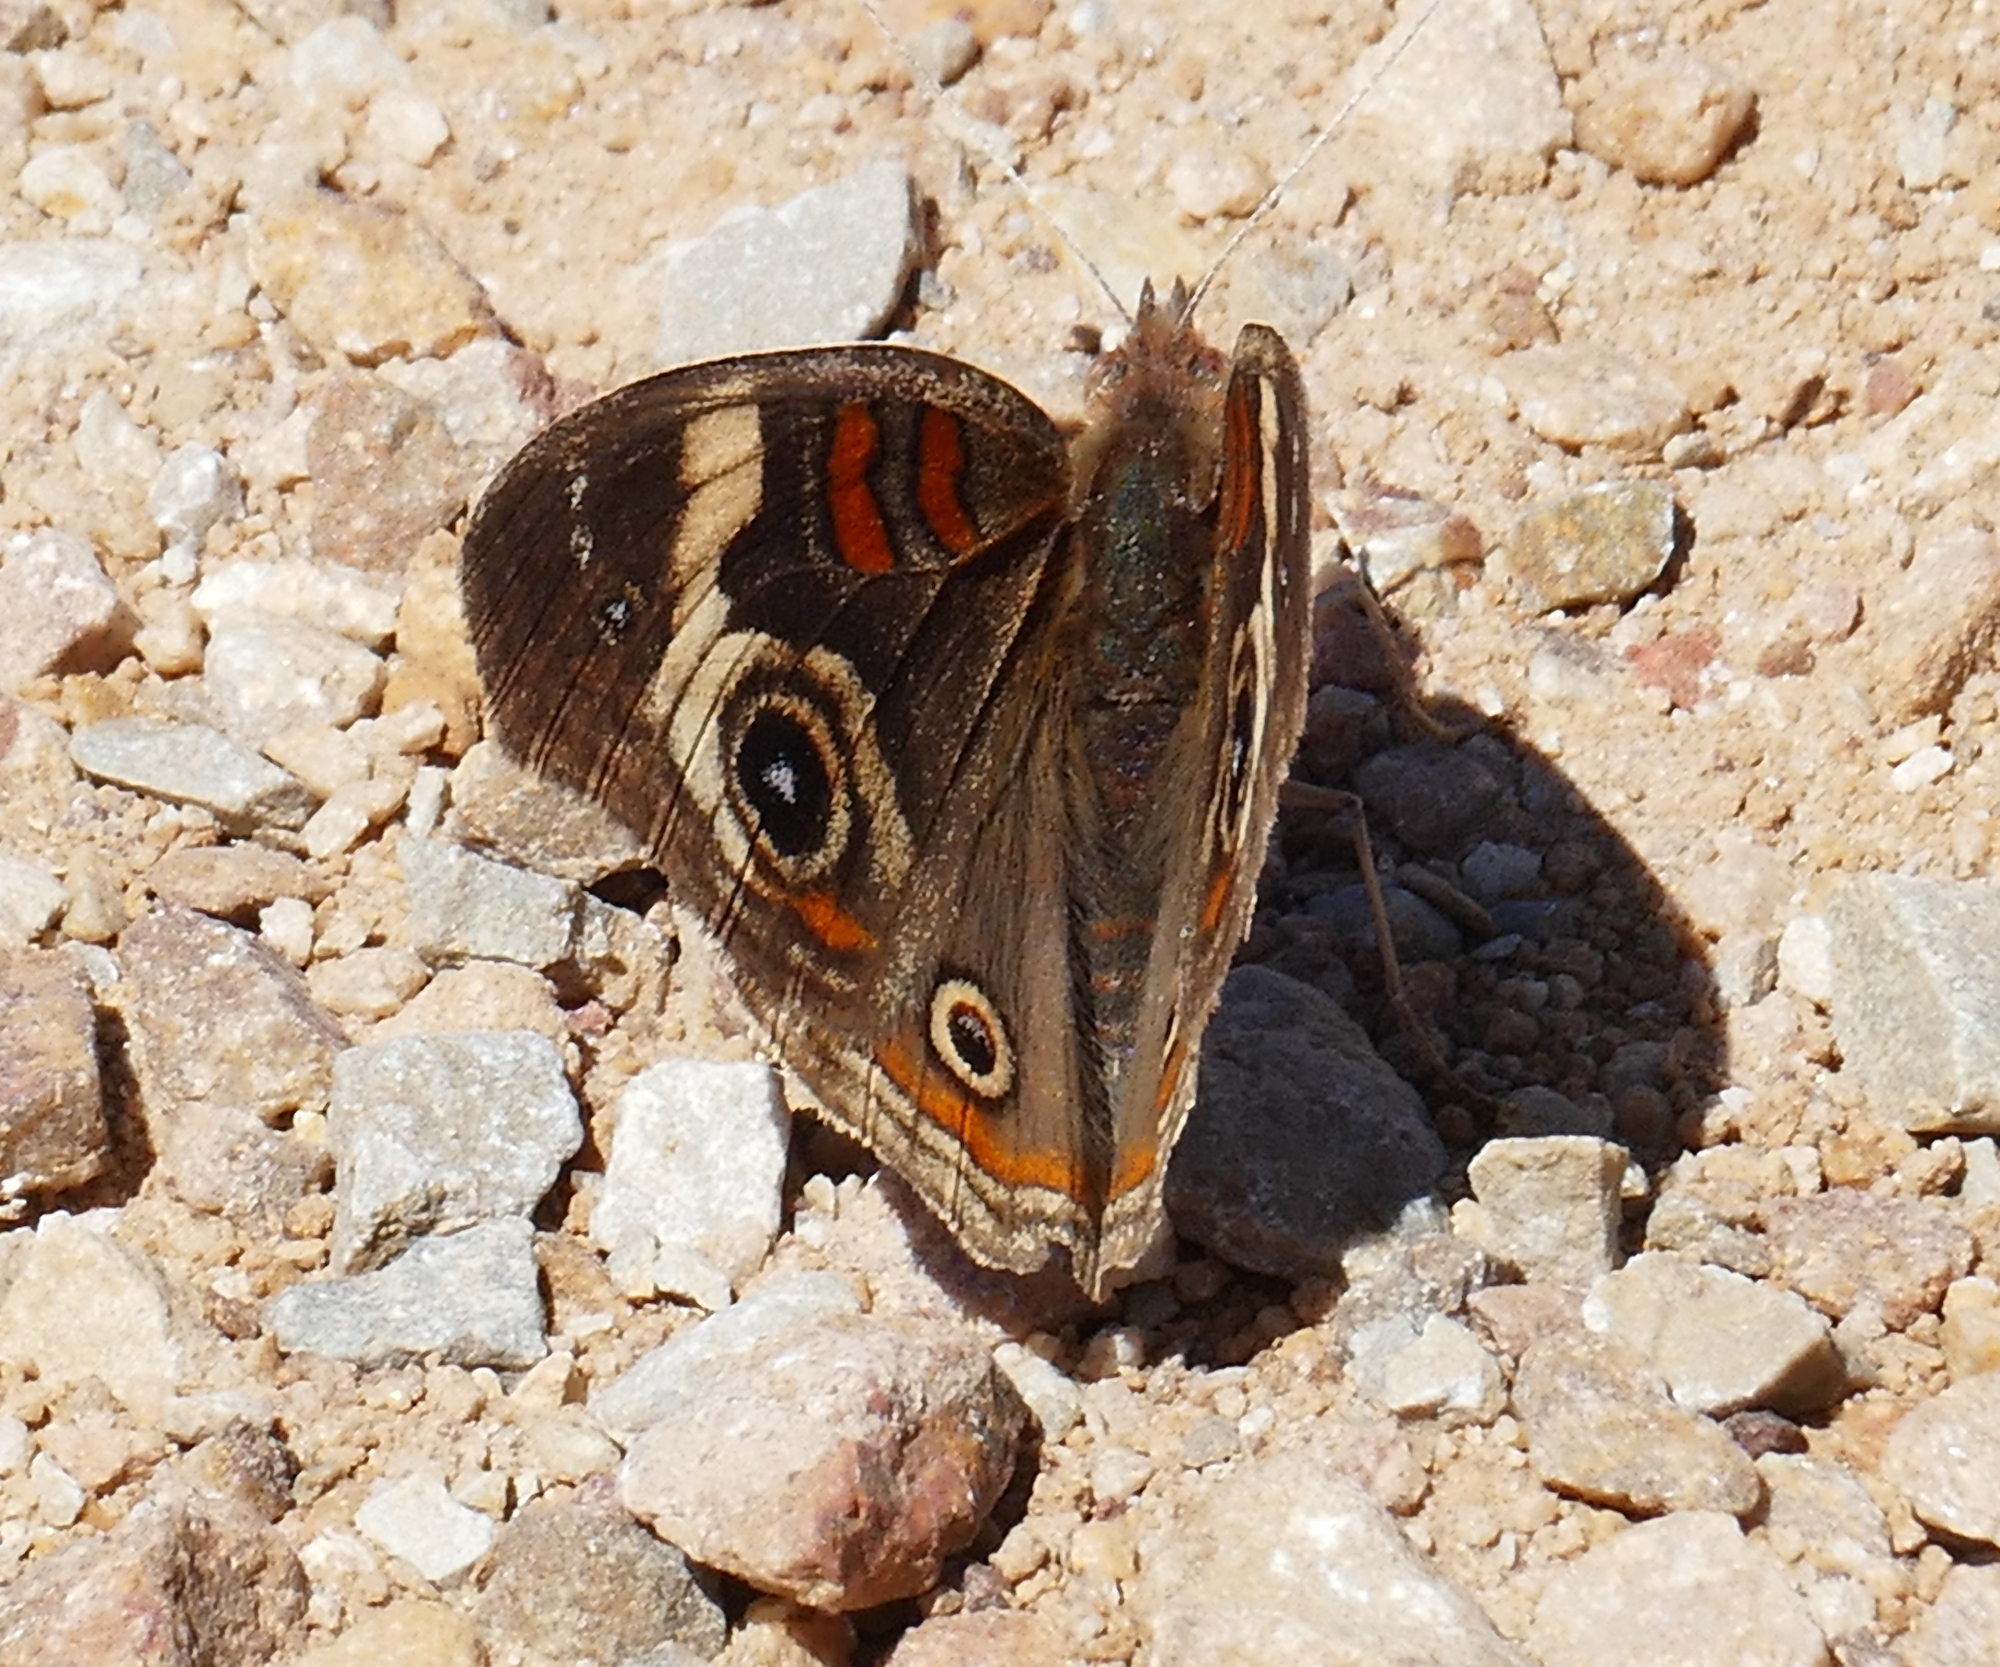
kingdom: Animalia
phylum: Arthropoda
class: Insecta
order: Lepidoptera
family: Nymphalidae
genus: Junonia
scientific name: Junonia grisea
